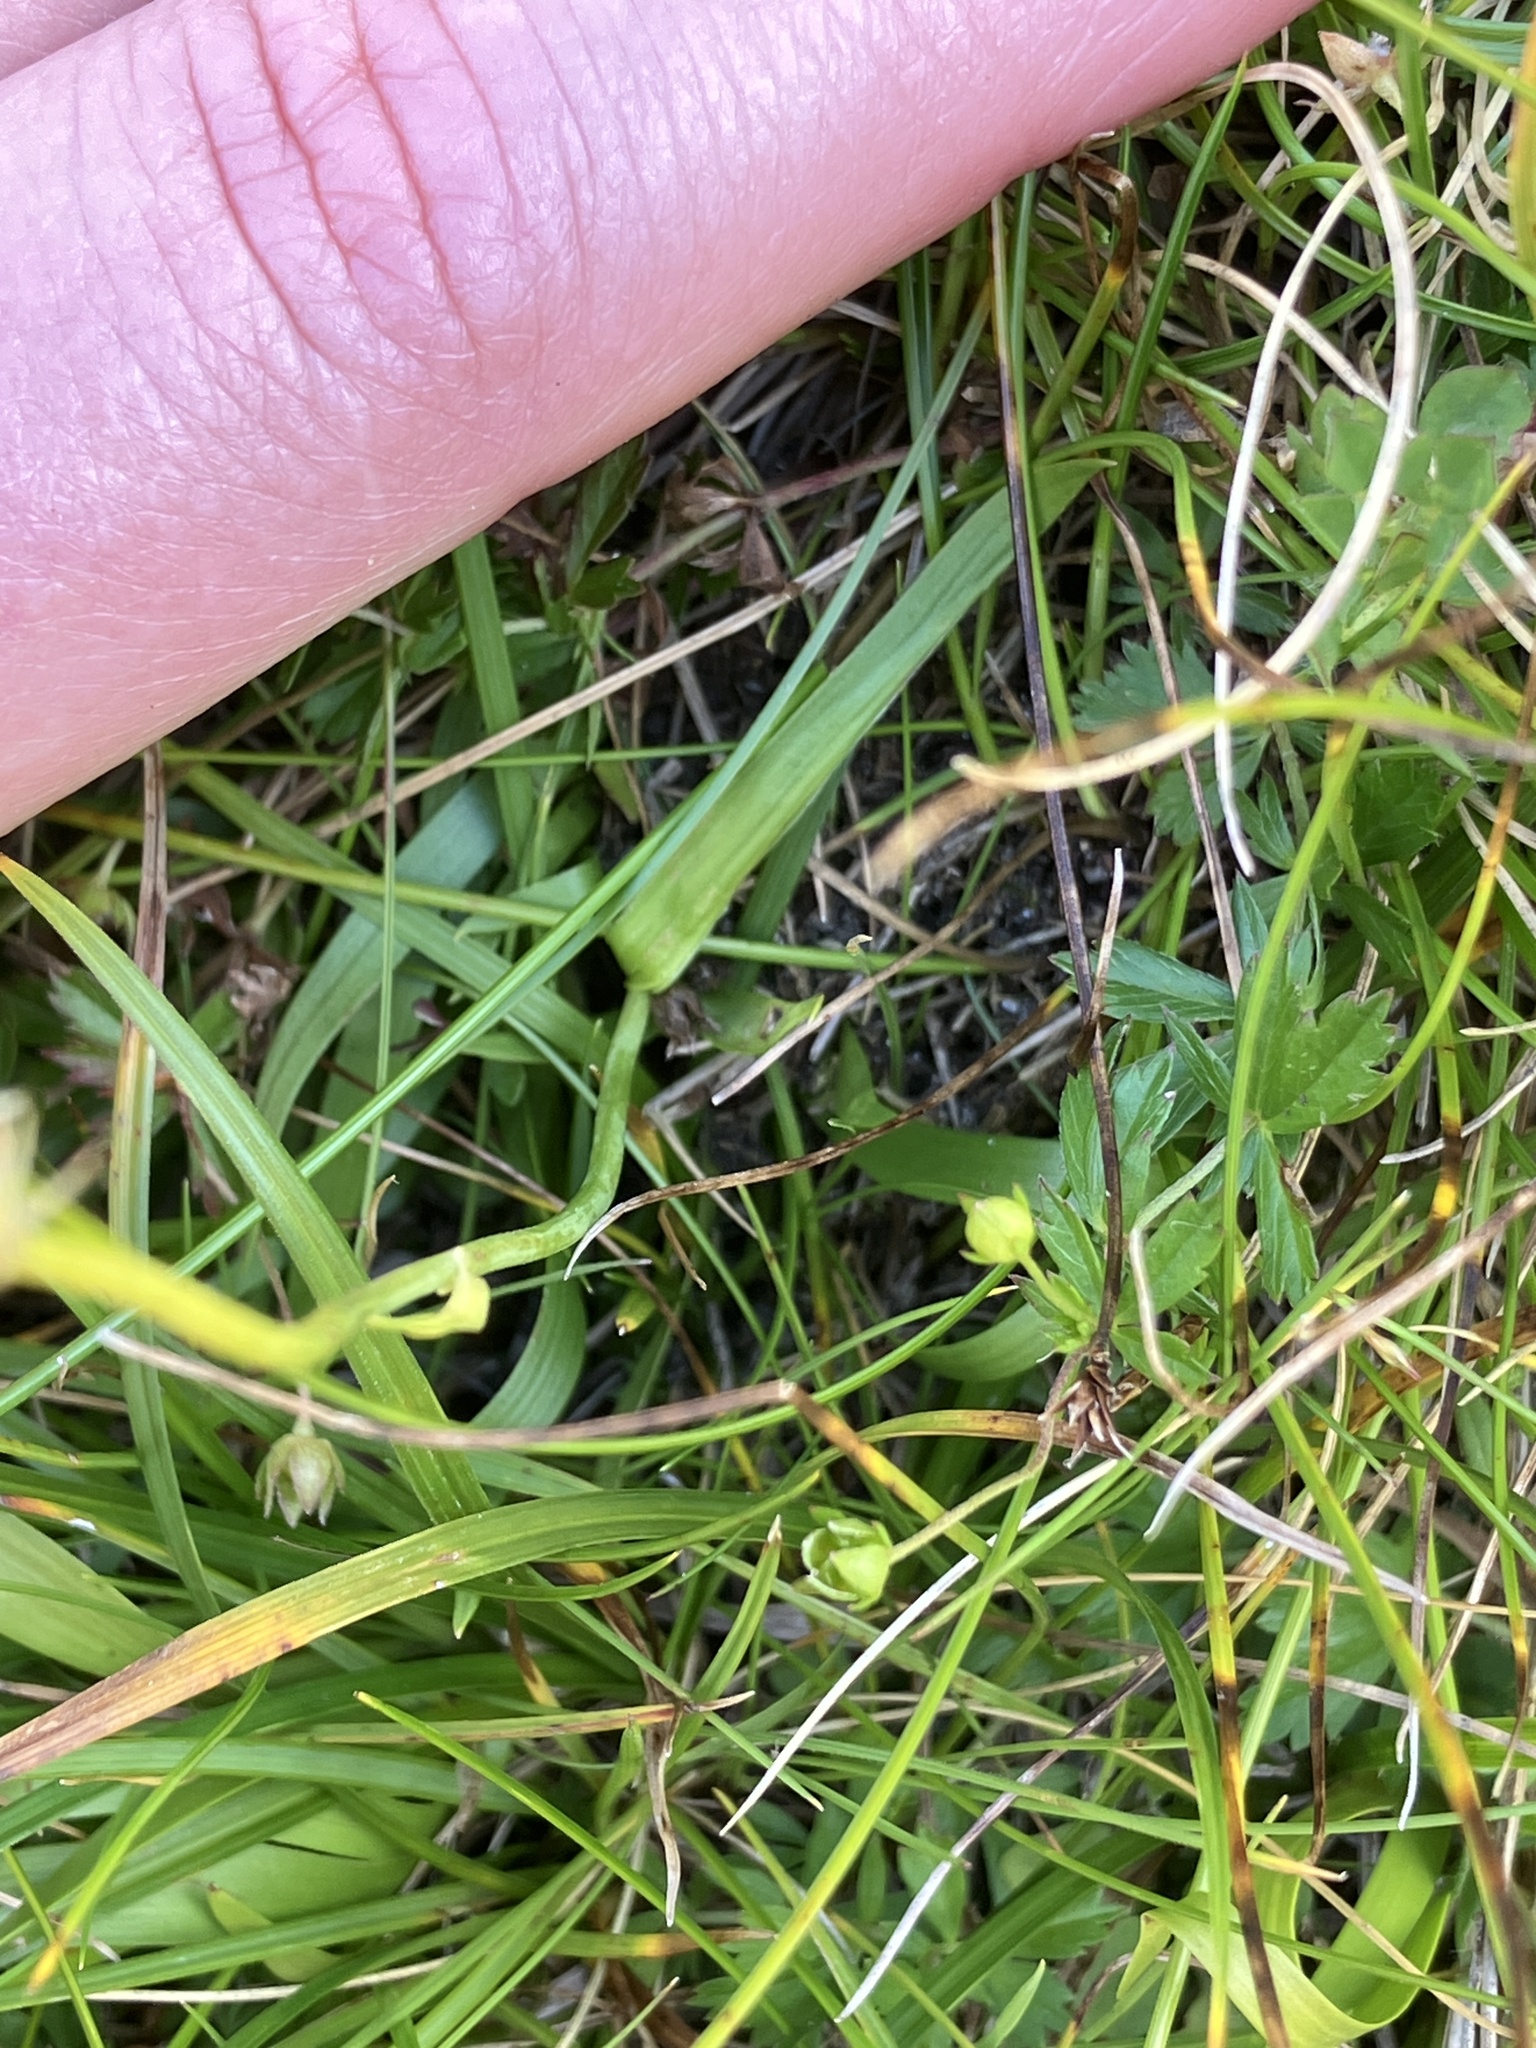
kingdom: Plantae
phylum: Tracheophyta
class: Liliopsida
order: Alismatales
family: Tofieldiaceae
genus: Tofieldia
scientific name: Tofieldia calyculata
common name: German-asphodel
